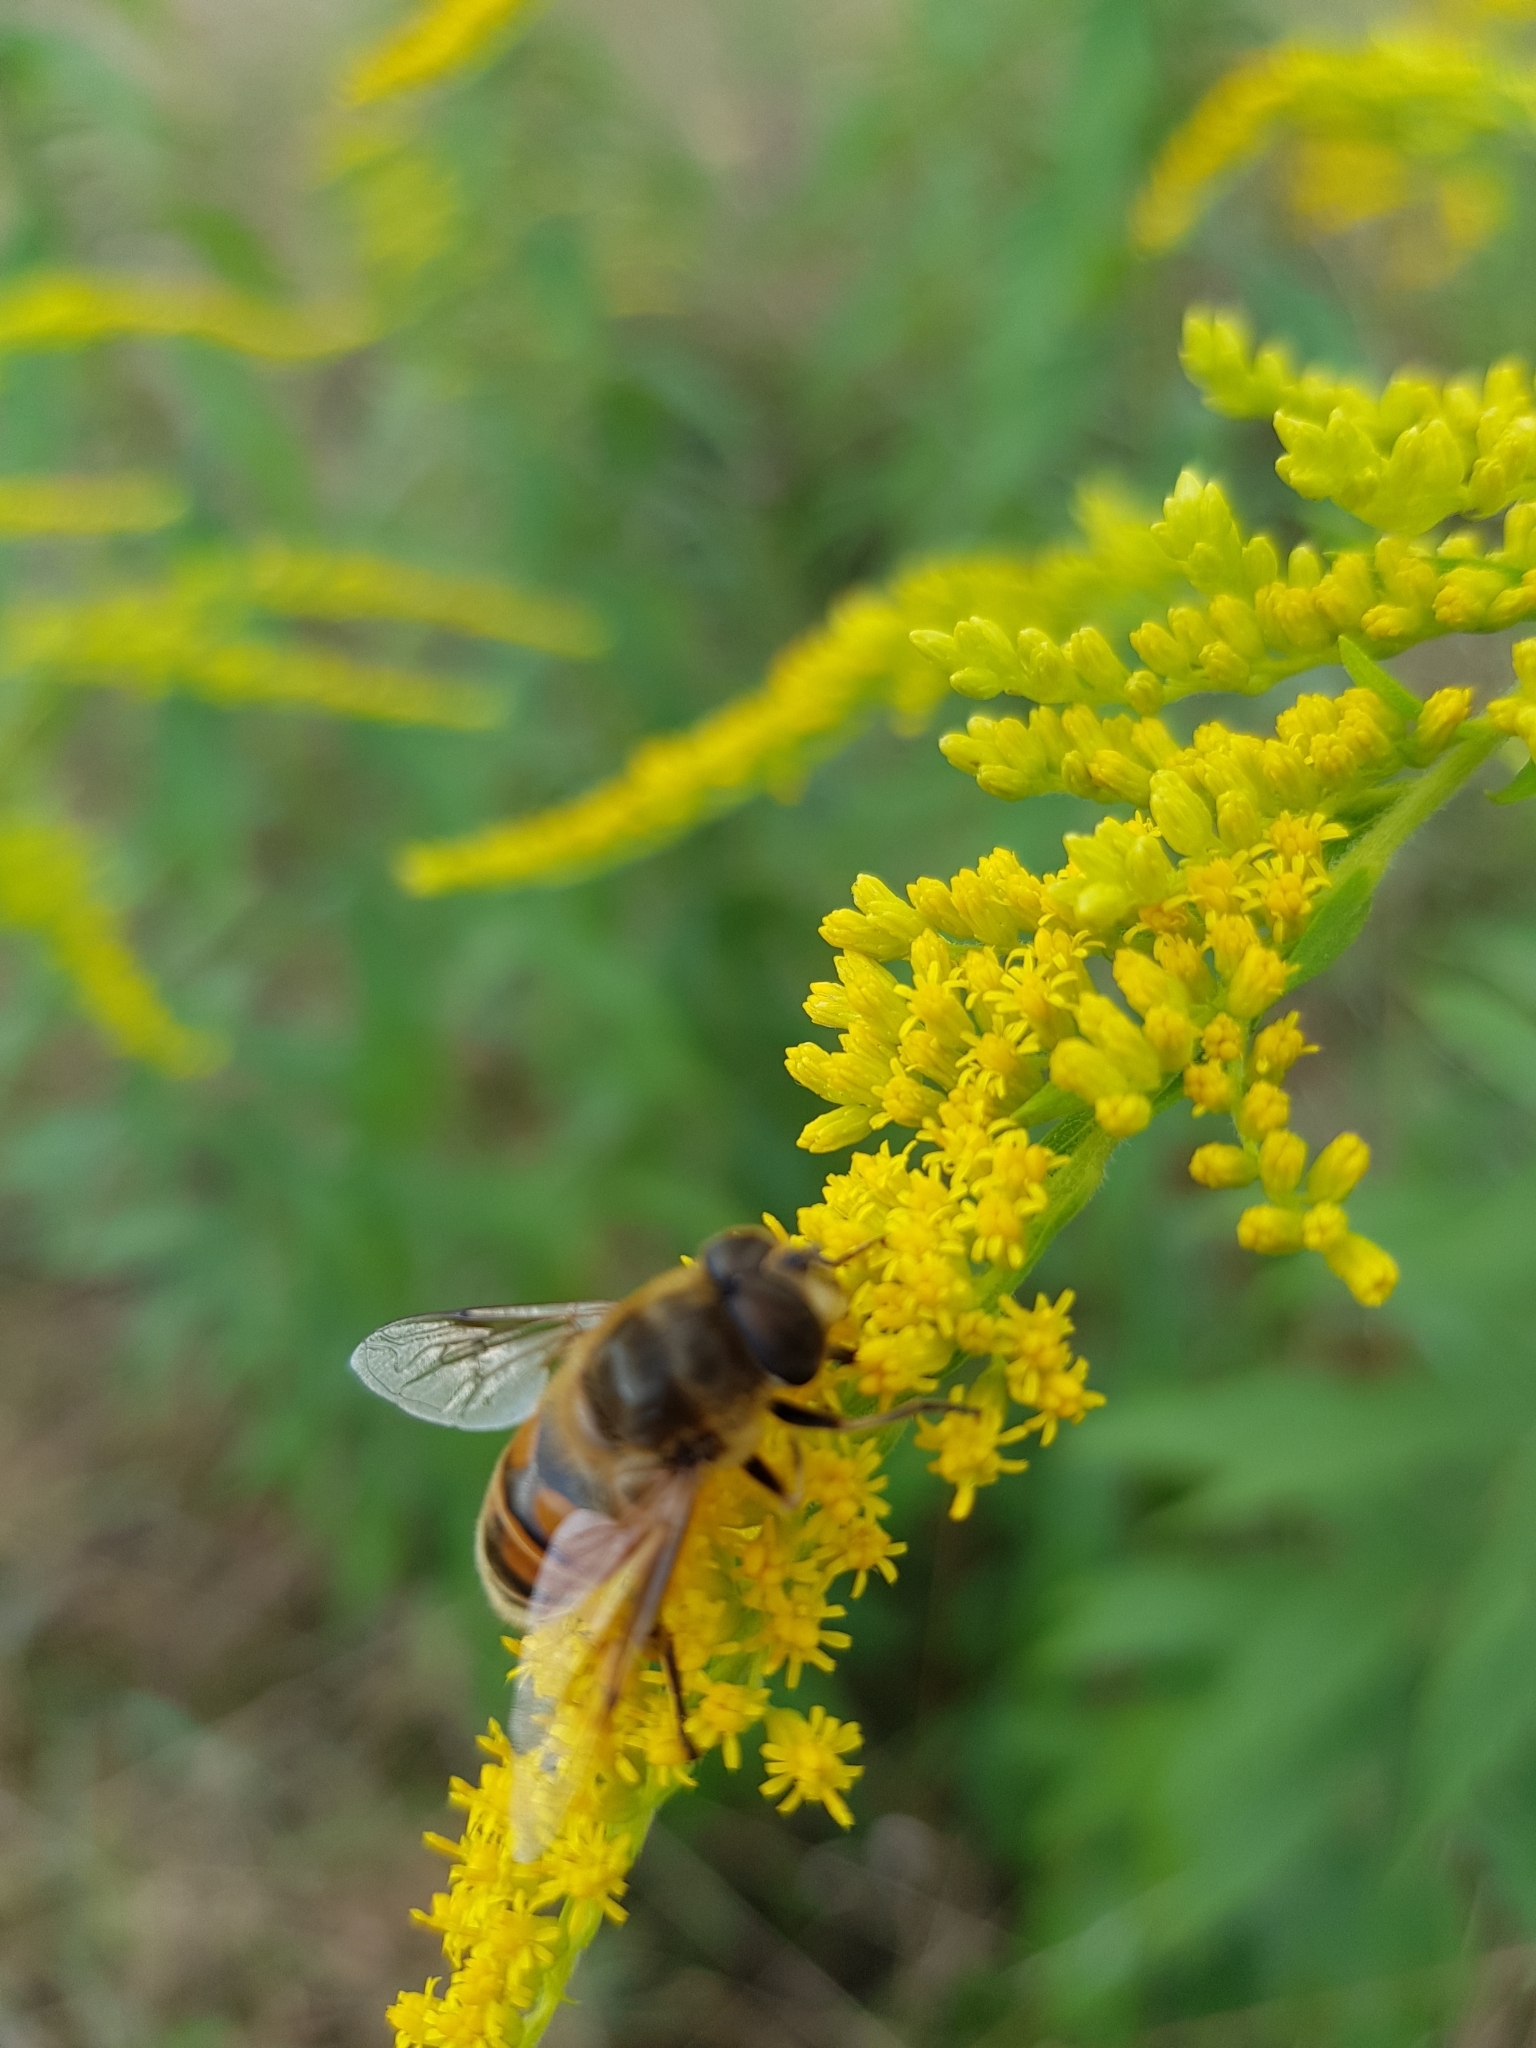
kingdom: Animalia
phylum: Arthropoda
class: Insecta
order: Diptera
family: Syrphidae
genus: Eristalis
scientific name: Eristalis tenax
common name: Drone fly
